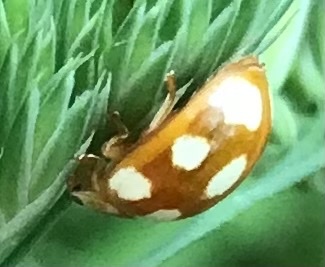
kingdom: Animalia
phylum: Arthropoda
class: Insecta
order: Coleoptera
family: Coccinellidae
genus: Calvia
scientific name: Calvia decemguttata
